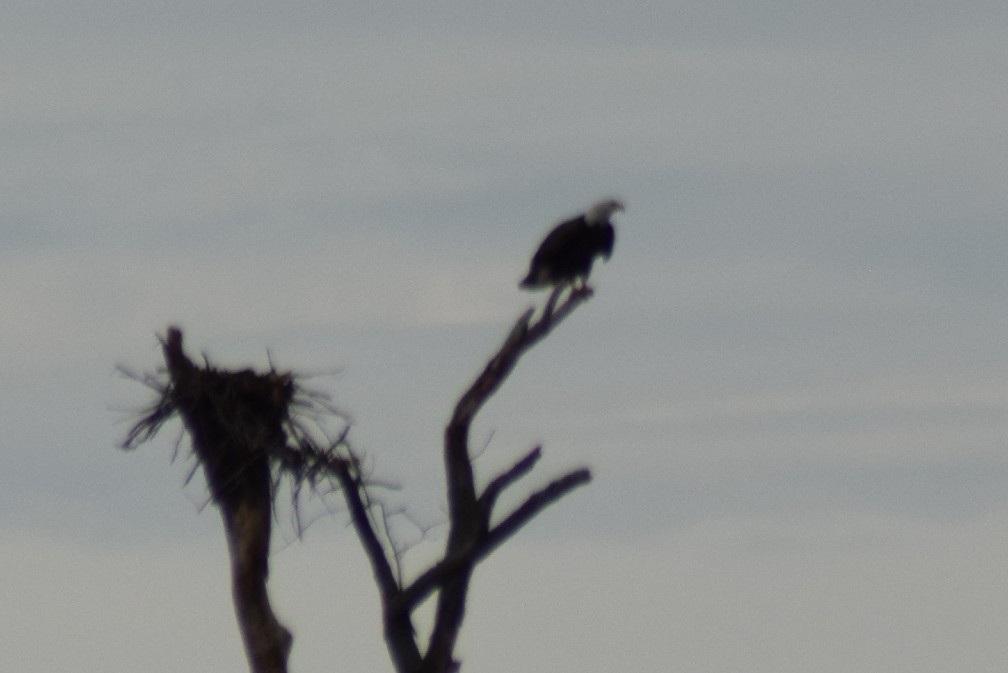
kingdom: Animalia
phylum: Chordata
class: Aves
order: Accipitriformes
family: Accipitridae
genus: Haliaeetus
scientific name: Haliaeetus leucocephalus
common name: Bald eagle
